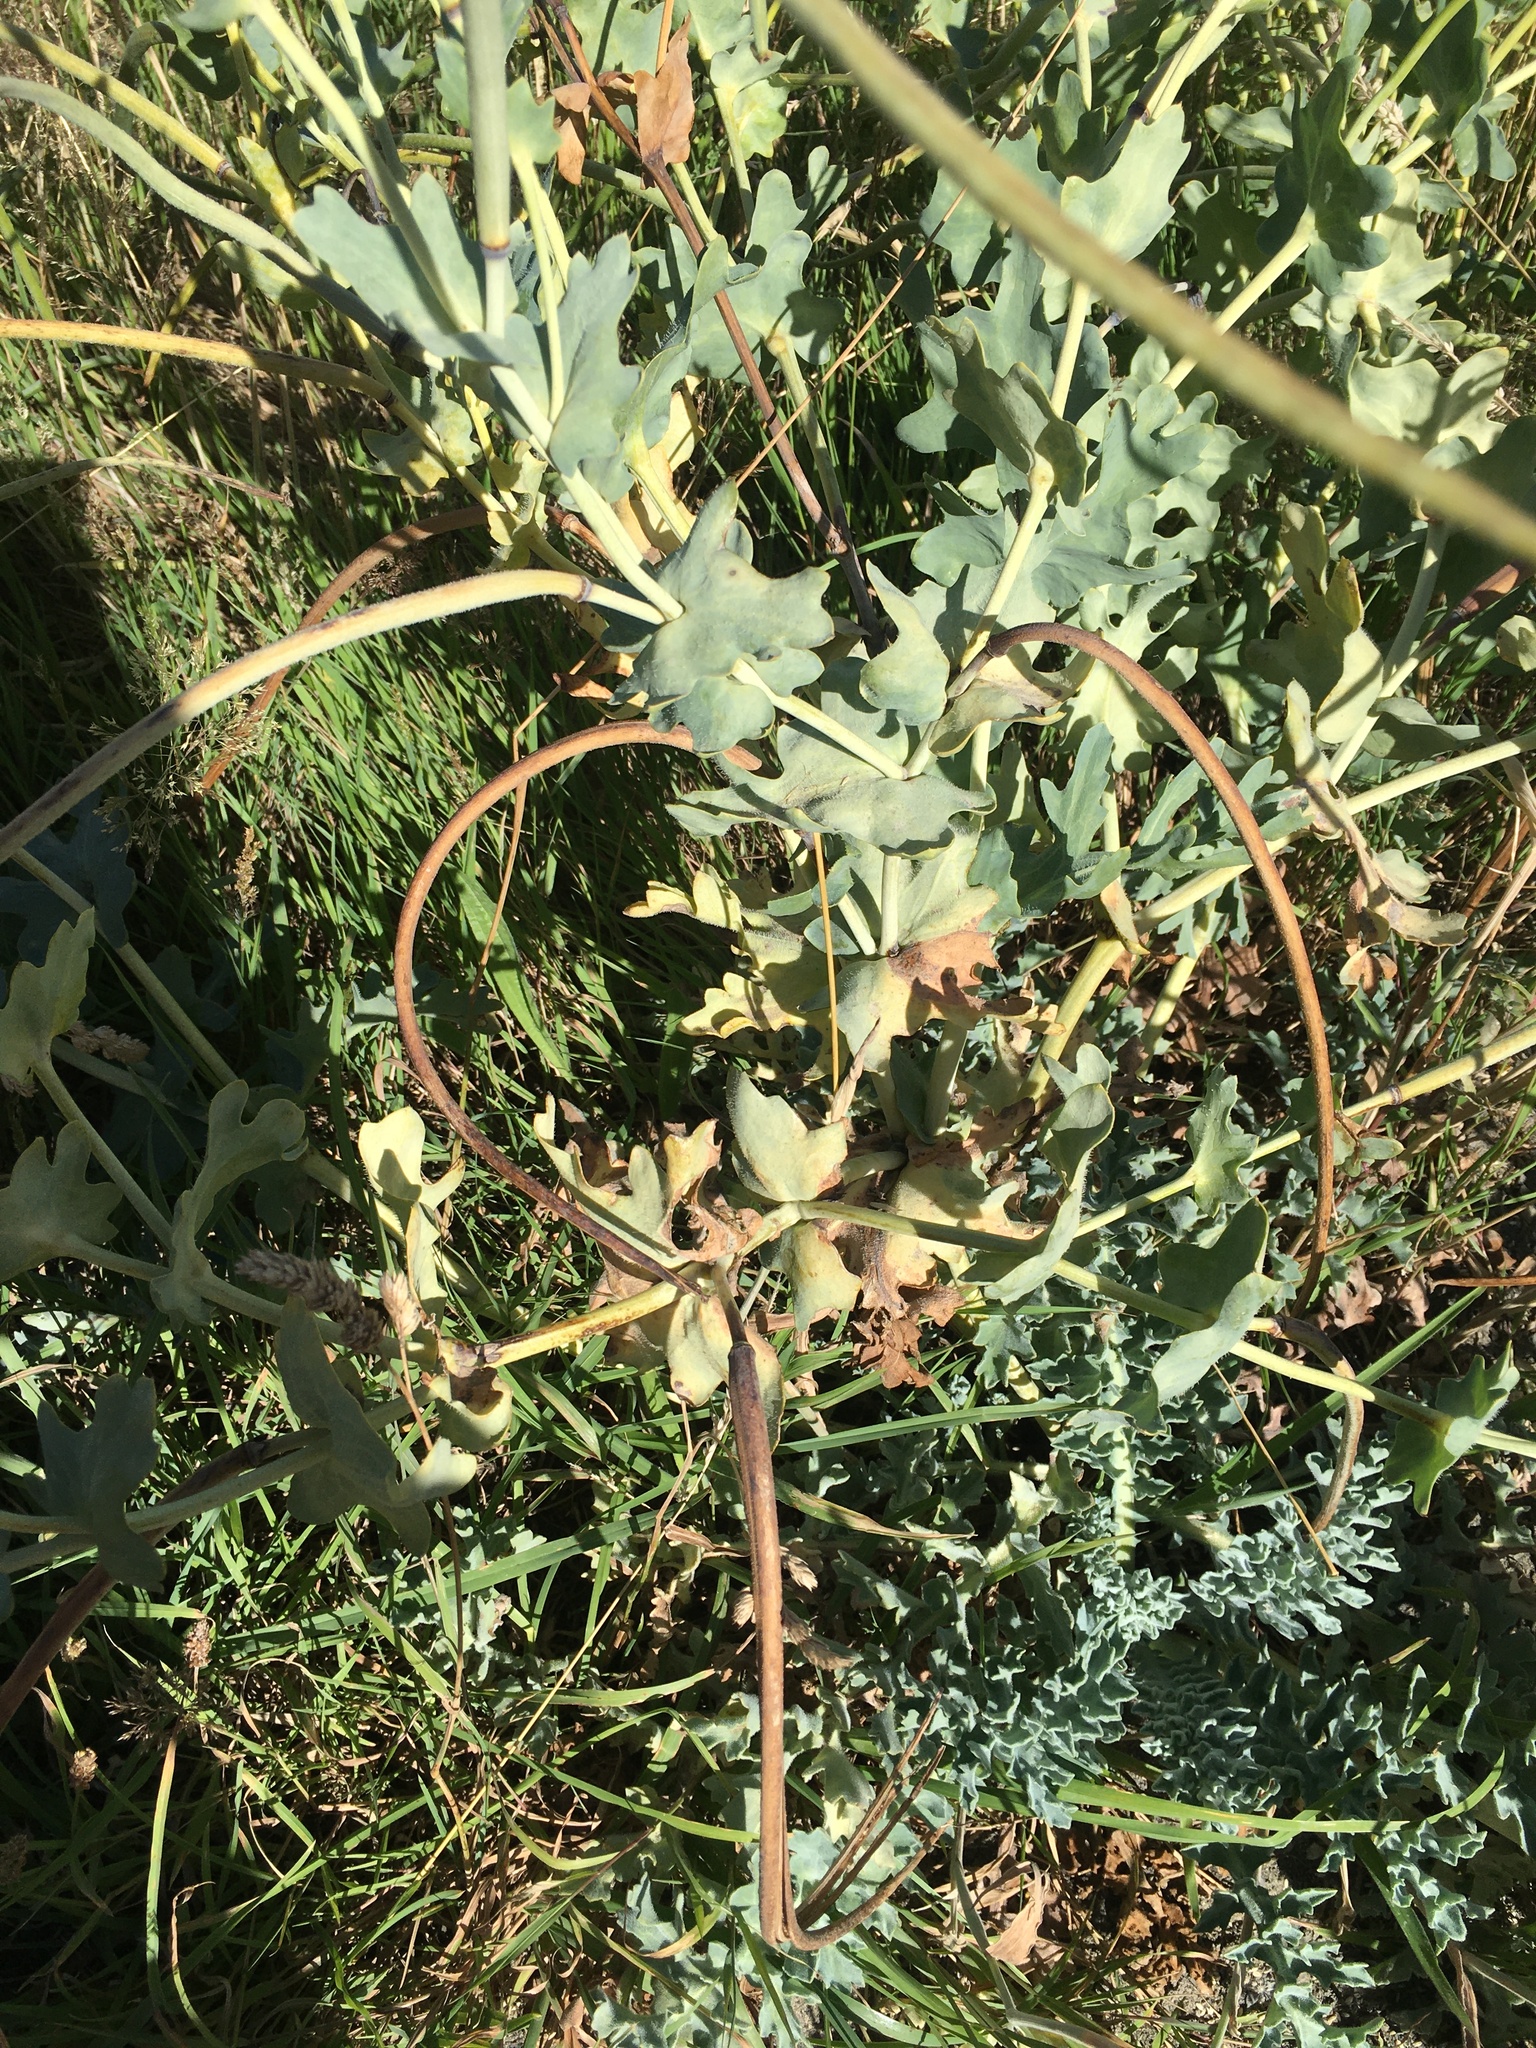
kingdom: Plantae
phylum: Tracheophyta
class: Magnoliopsida
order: Ranunculales
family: Papaveraceae
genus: Glaucium
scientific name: Glaucium flavum
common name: Yellow horned-poppy
